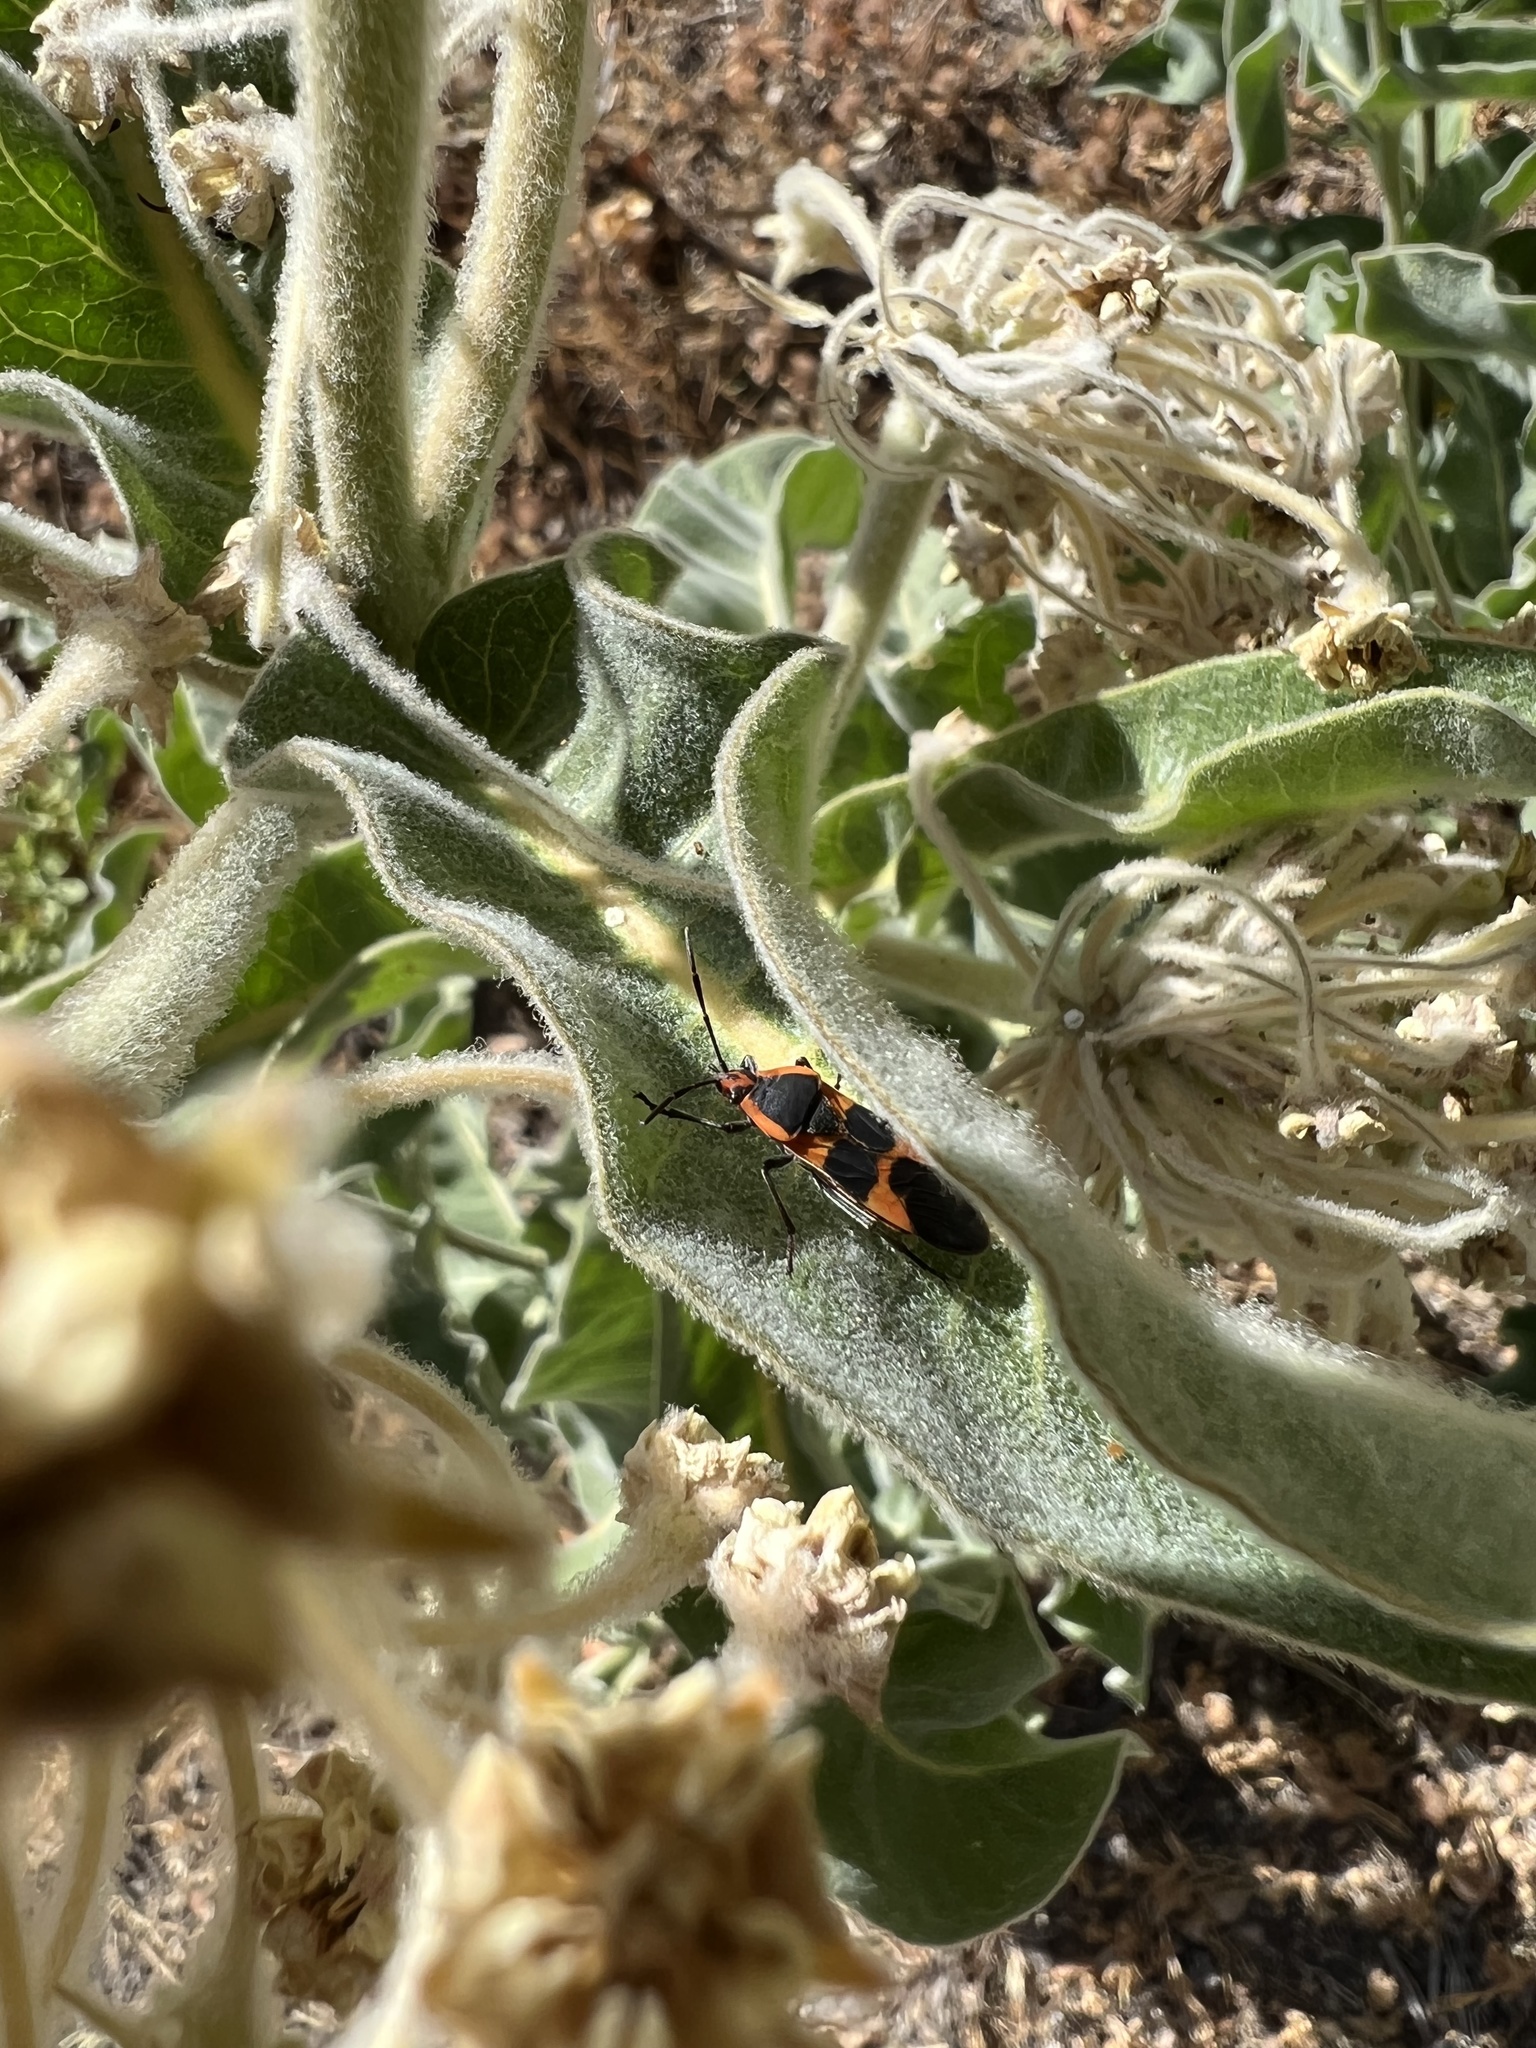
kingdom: Animalia
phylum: Arthropoda
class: Insecta
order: Hemiptera
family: Lygaeidae
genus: Oncopeltus
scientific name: Oncopeltus fasciatus
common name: Large milkweed bug
